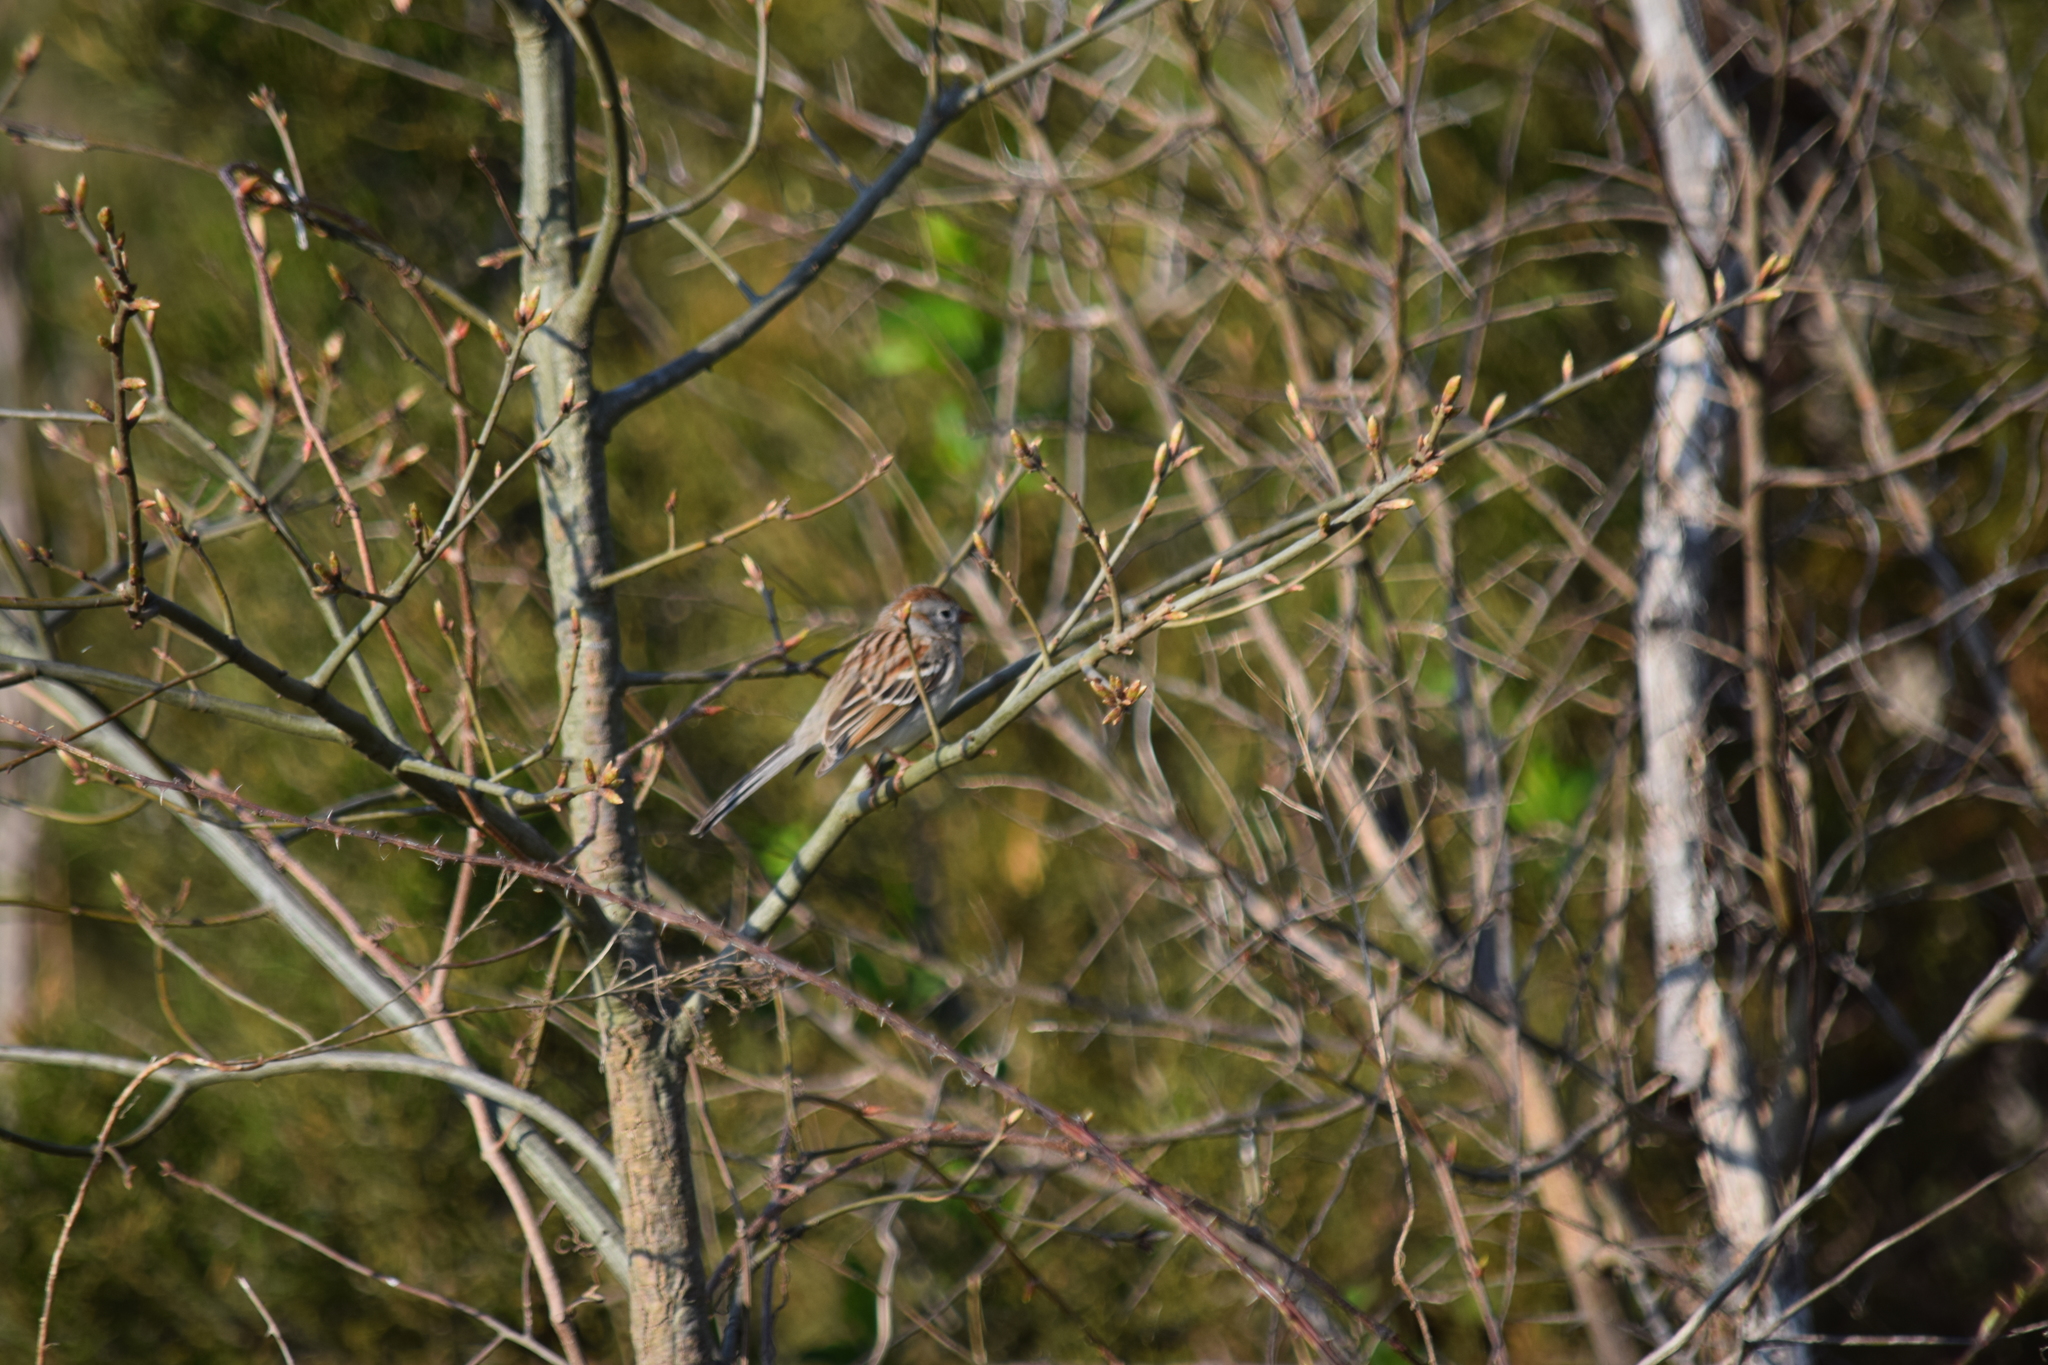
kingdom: Animalia
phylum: Chordata
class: Aves
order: Passeriformes
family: Passerellidae
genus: Spizella
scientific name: Spizella pusilla
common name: Field sparrow
